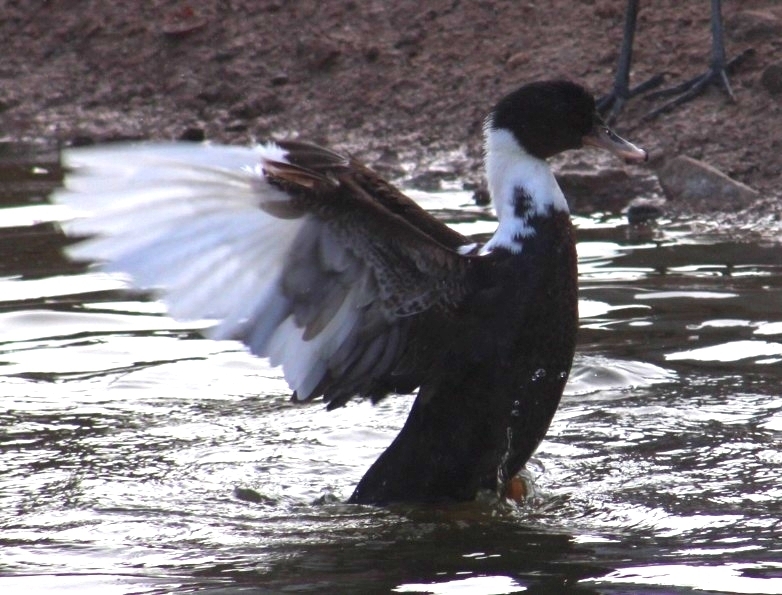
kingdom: Animalia
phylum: Chordata
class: Aves
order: Anseriformes
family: Anatidae
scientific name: Anatidae
